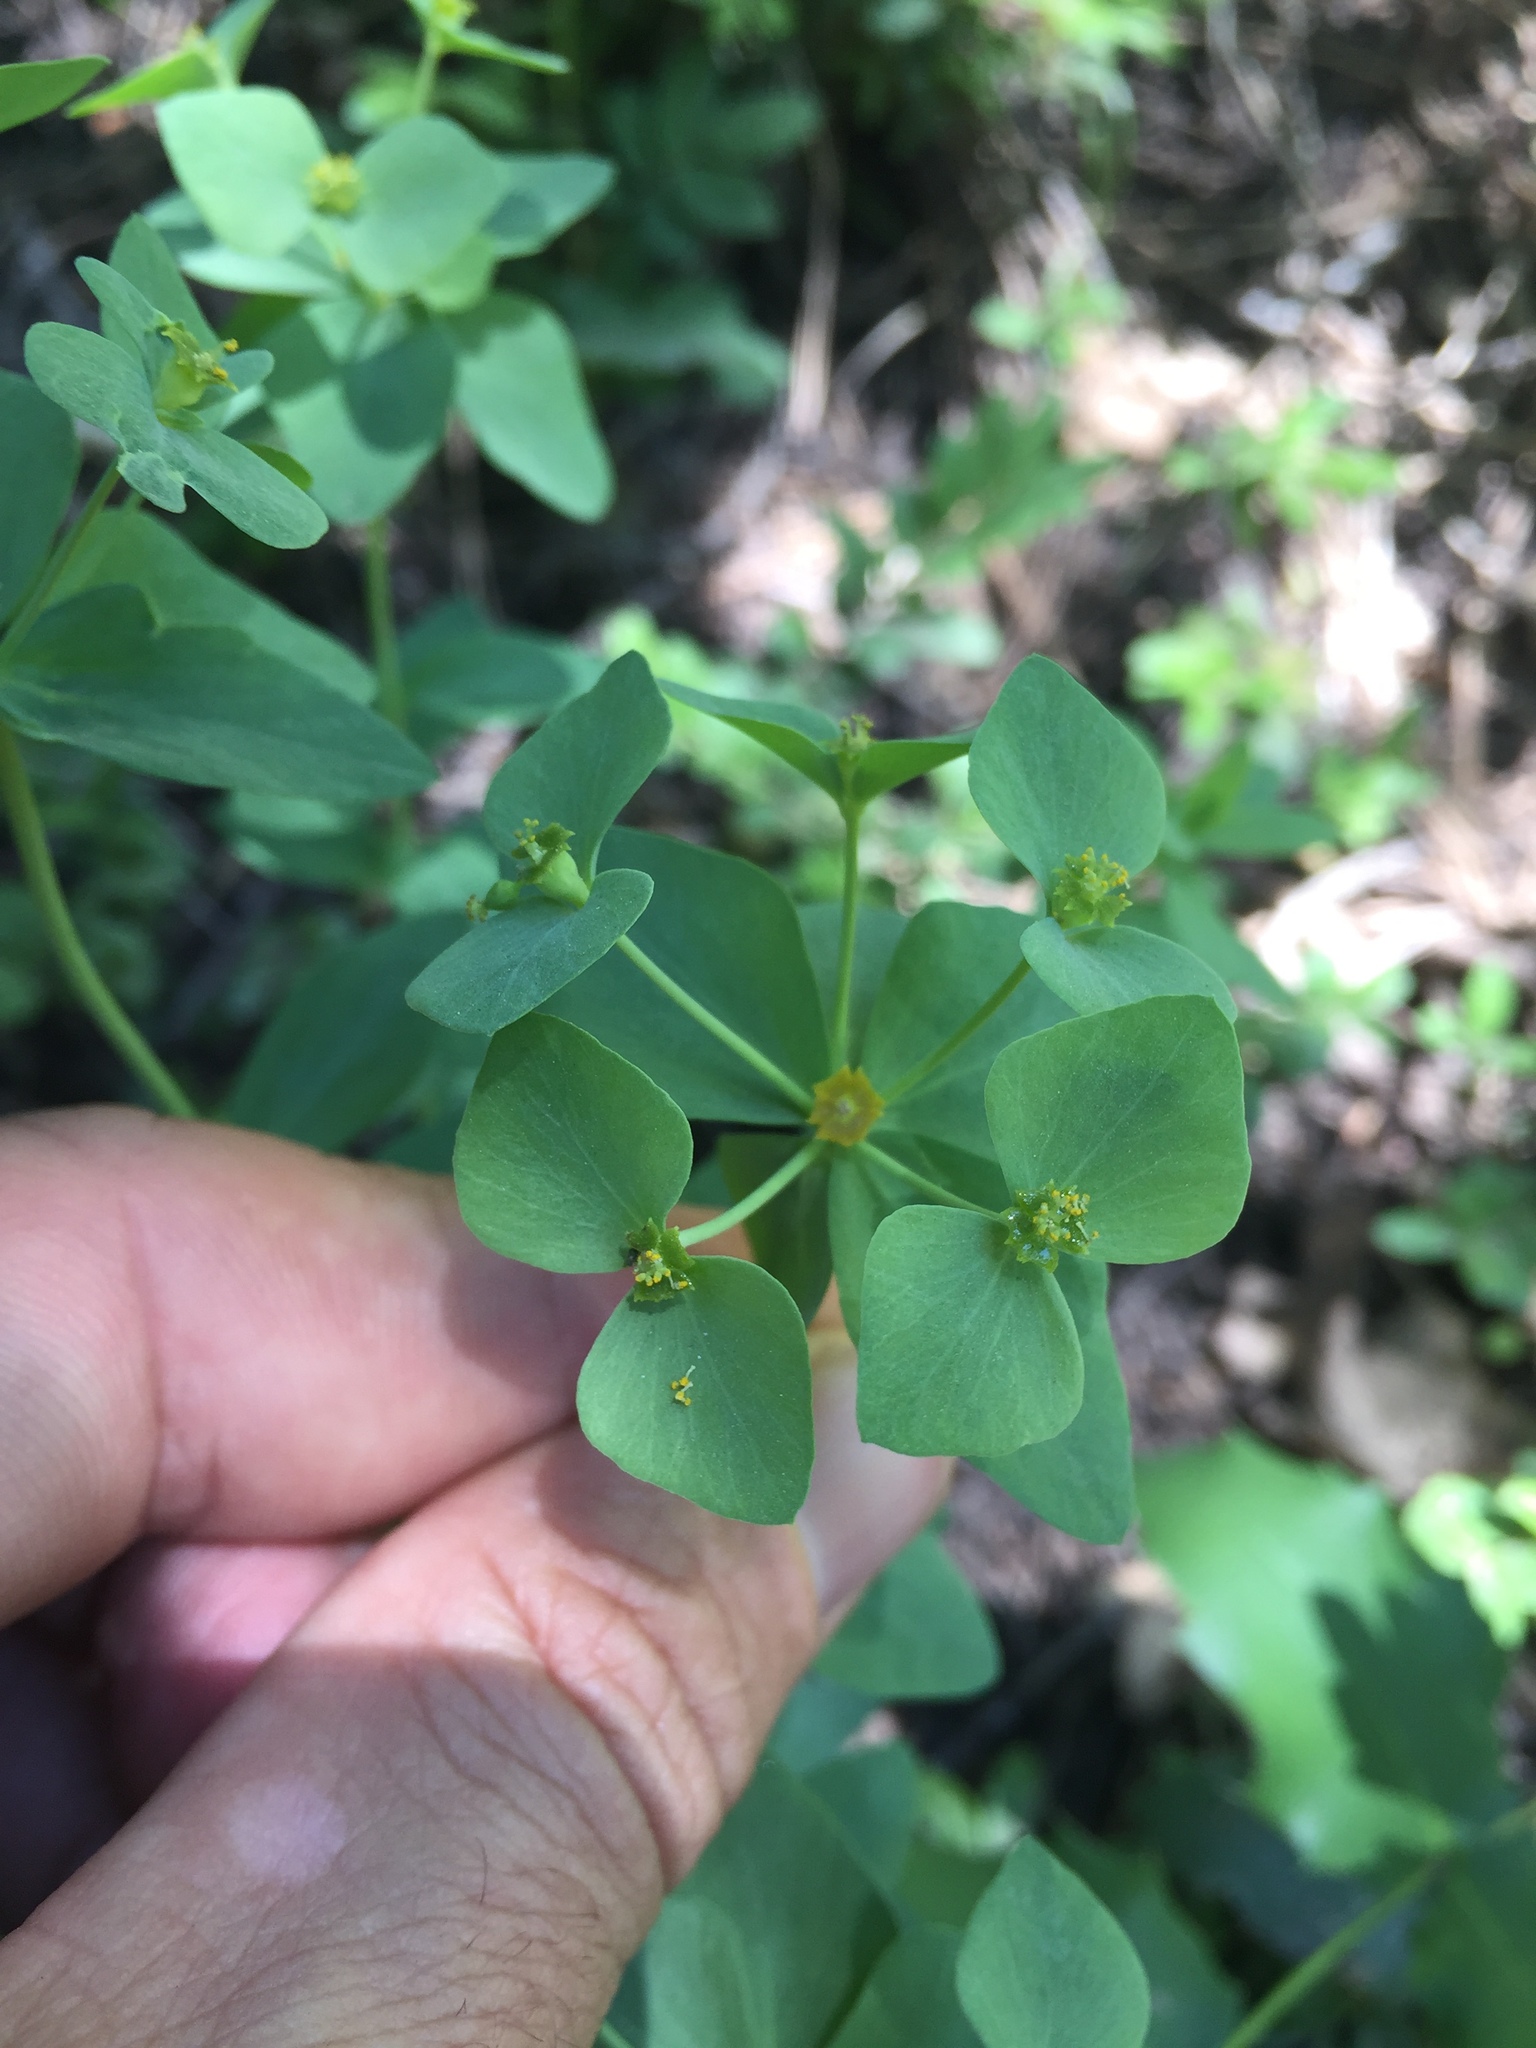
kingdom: Plantae
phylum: Tracheophyta
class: Magnoliopsida
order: Malpighiales
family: Euphorbiaceae
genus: Euphorbia
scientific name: Euphorbia brachycera
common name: Shorthorn spurge
